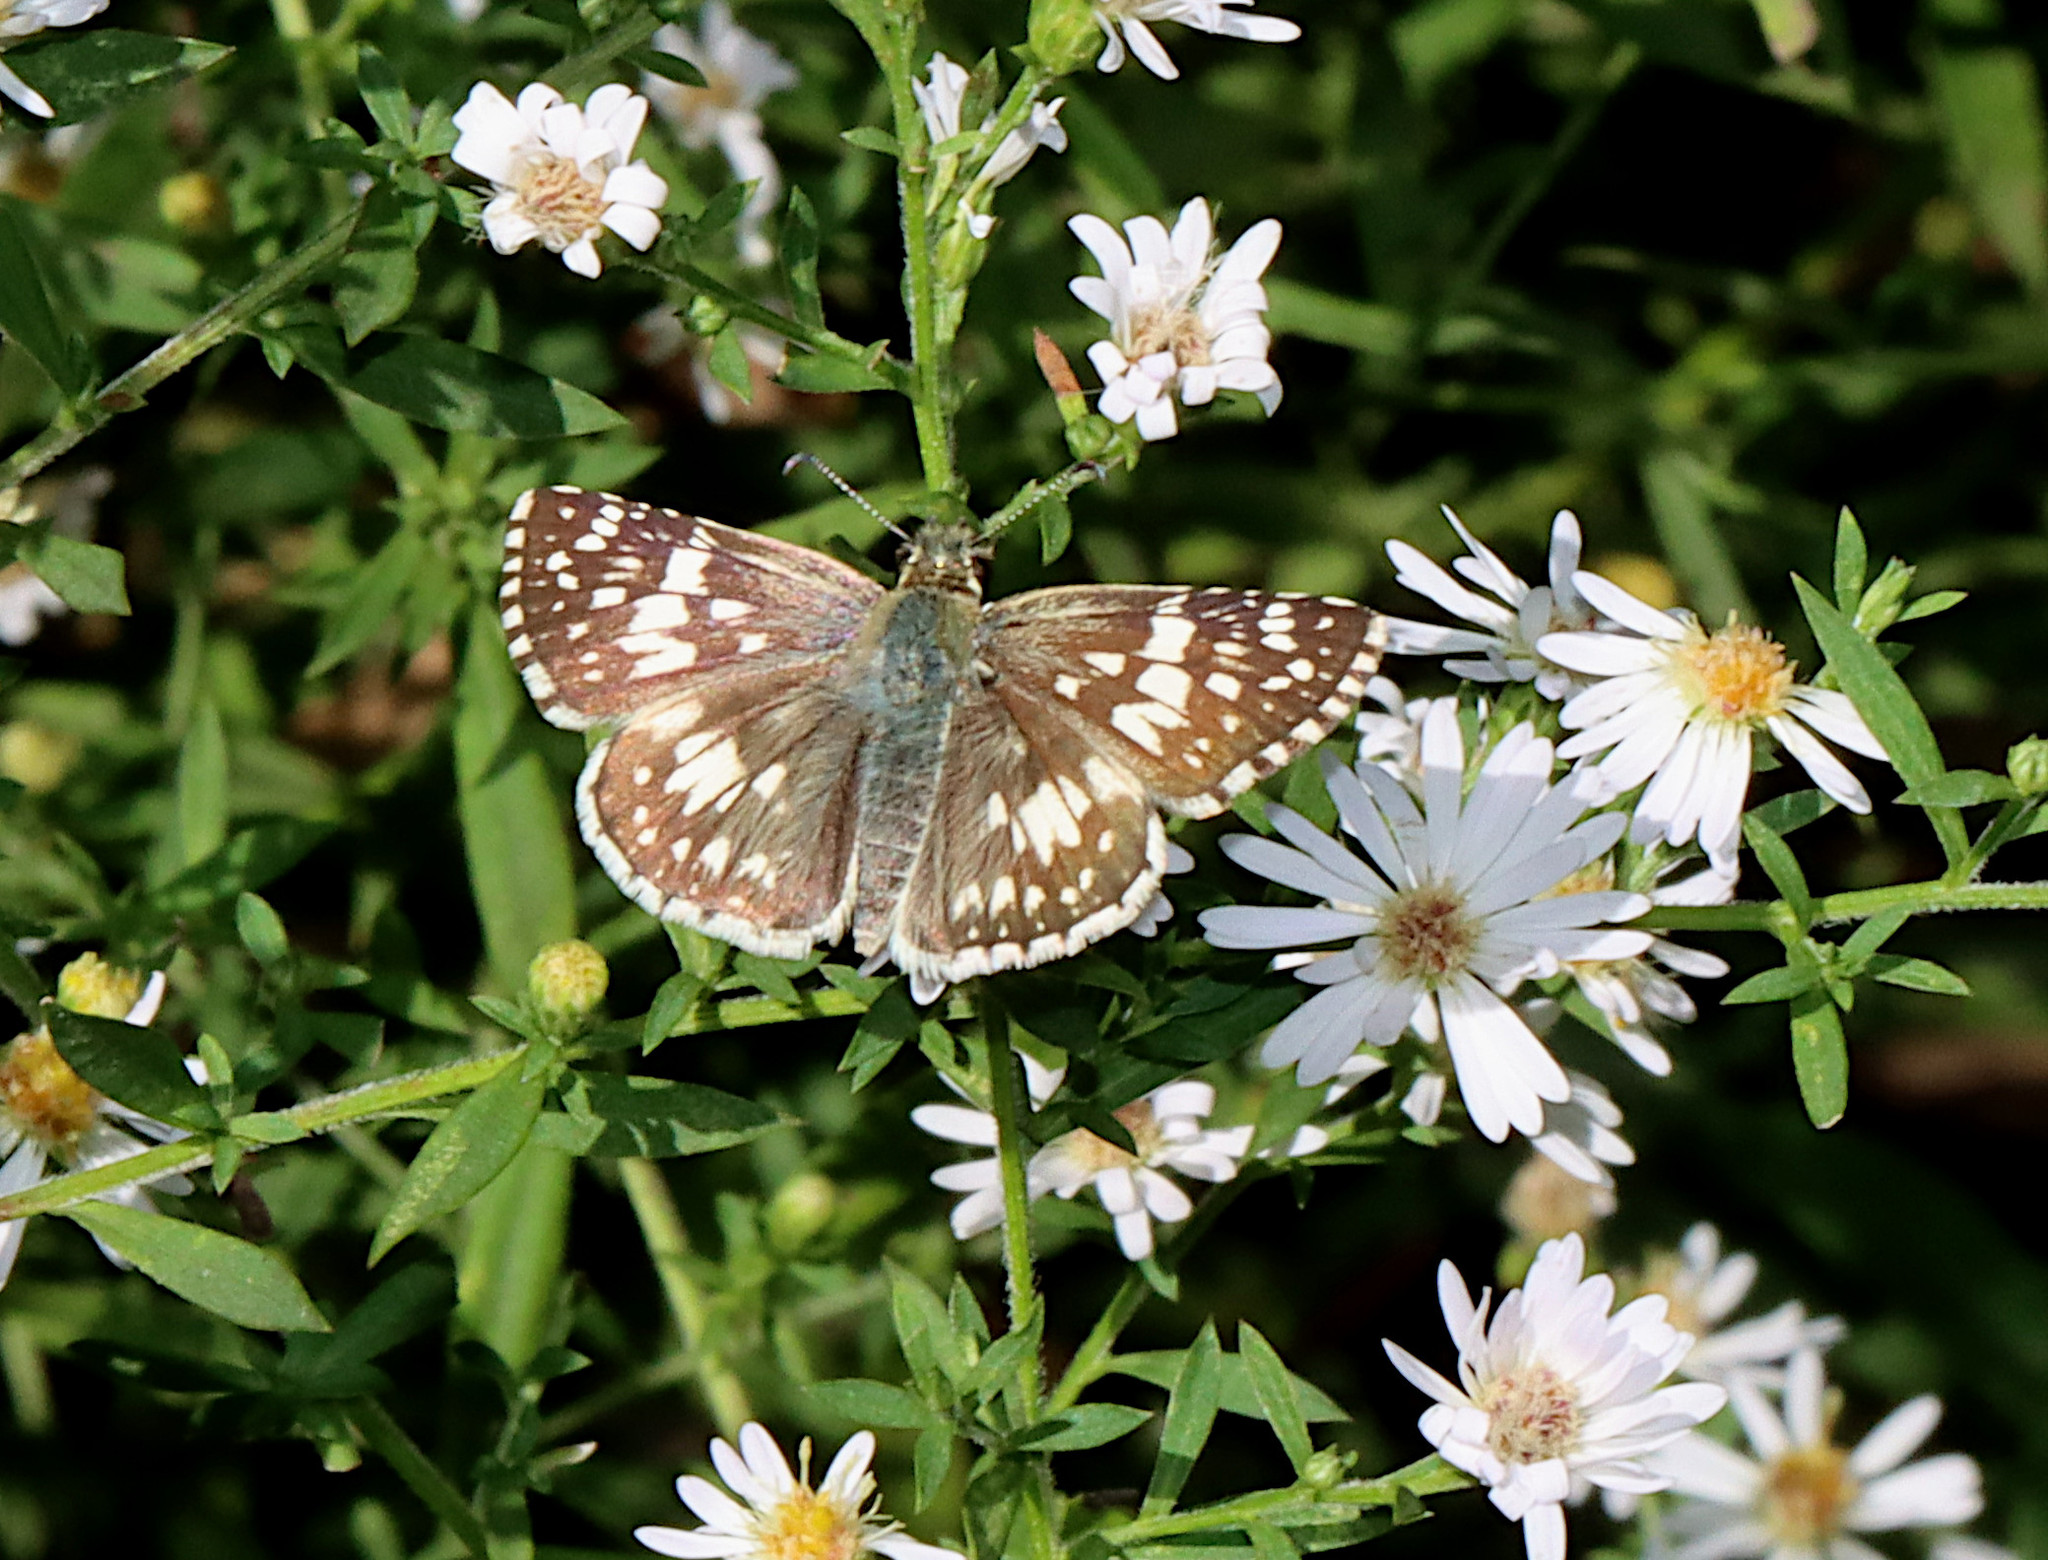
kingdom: Animalia
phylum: Arthropoda
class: Insecta
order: Lepidoptera
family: Hesperiidae
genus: Burnsius
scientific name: Burnsius communis
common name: Common checkered-skipper
